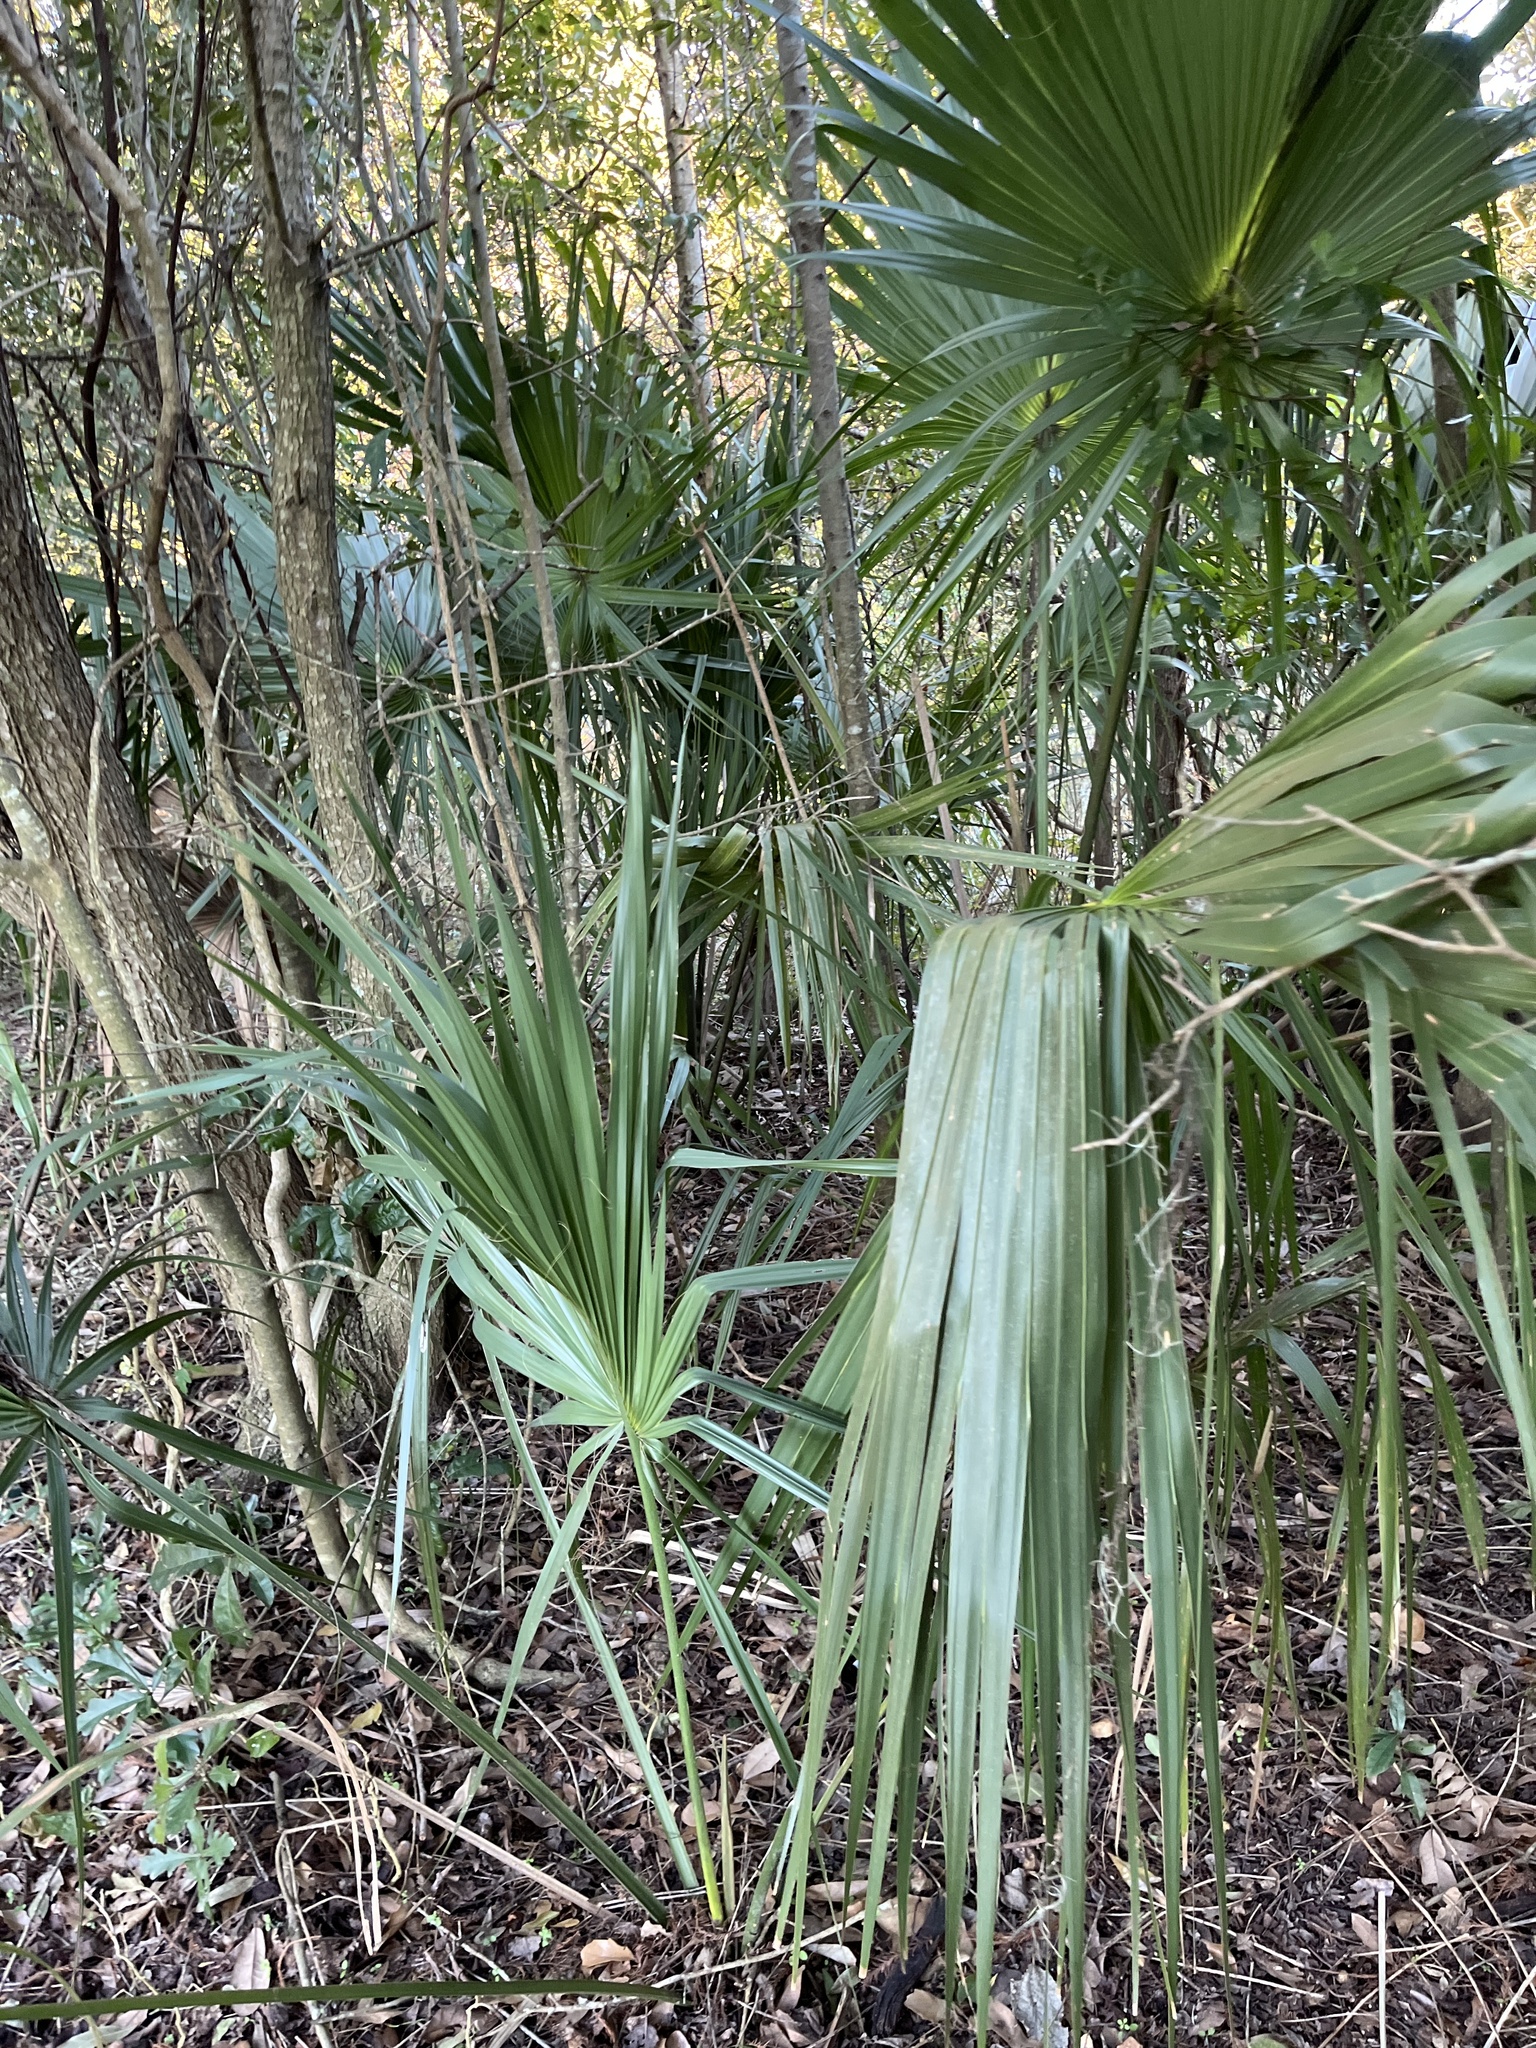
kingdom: Plantae
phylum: Tracheophyta
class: Liliopsida
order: Arecales
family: Arecaceae
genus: Sabal
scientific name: Sabal minor
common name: Dwarf palmetto
